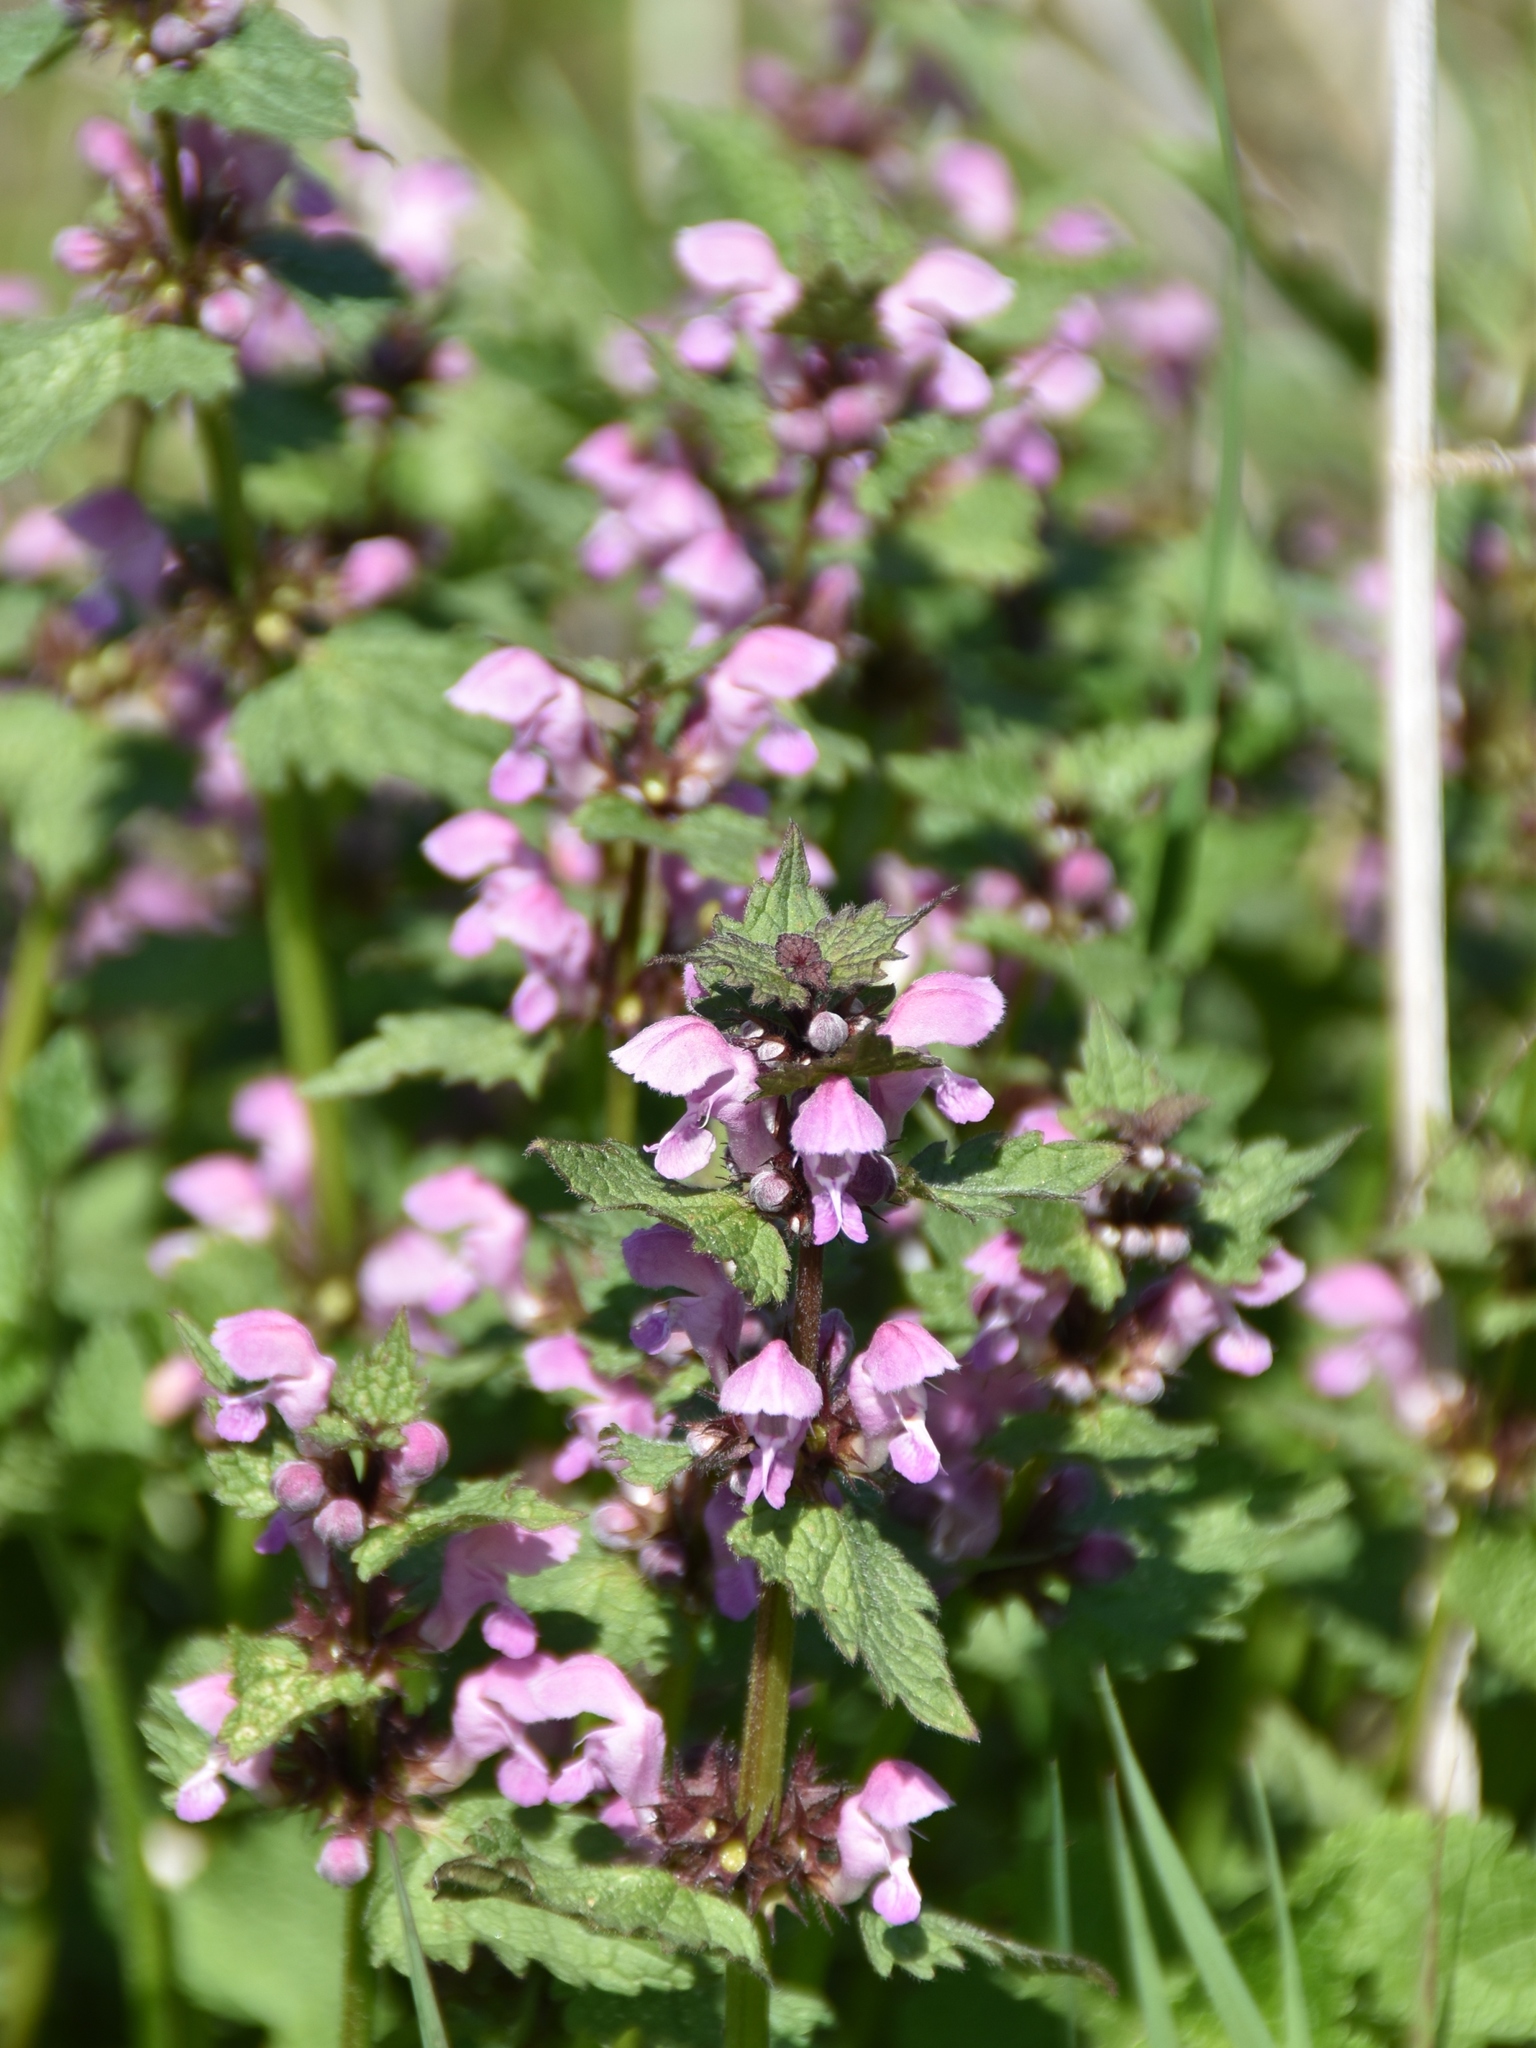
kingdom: Plantae
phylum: Tracheophyta
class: Magnoliopsida
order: Lamiales
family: Lamiaceae
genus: Lamium
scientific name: Lamium maculatum
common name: Spotted dead-nettle
